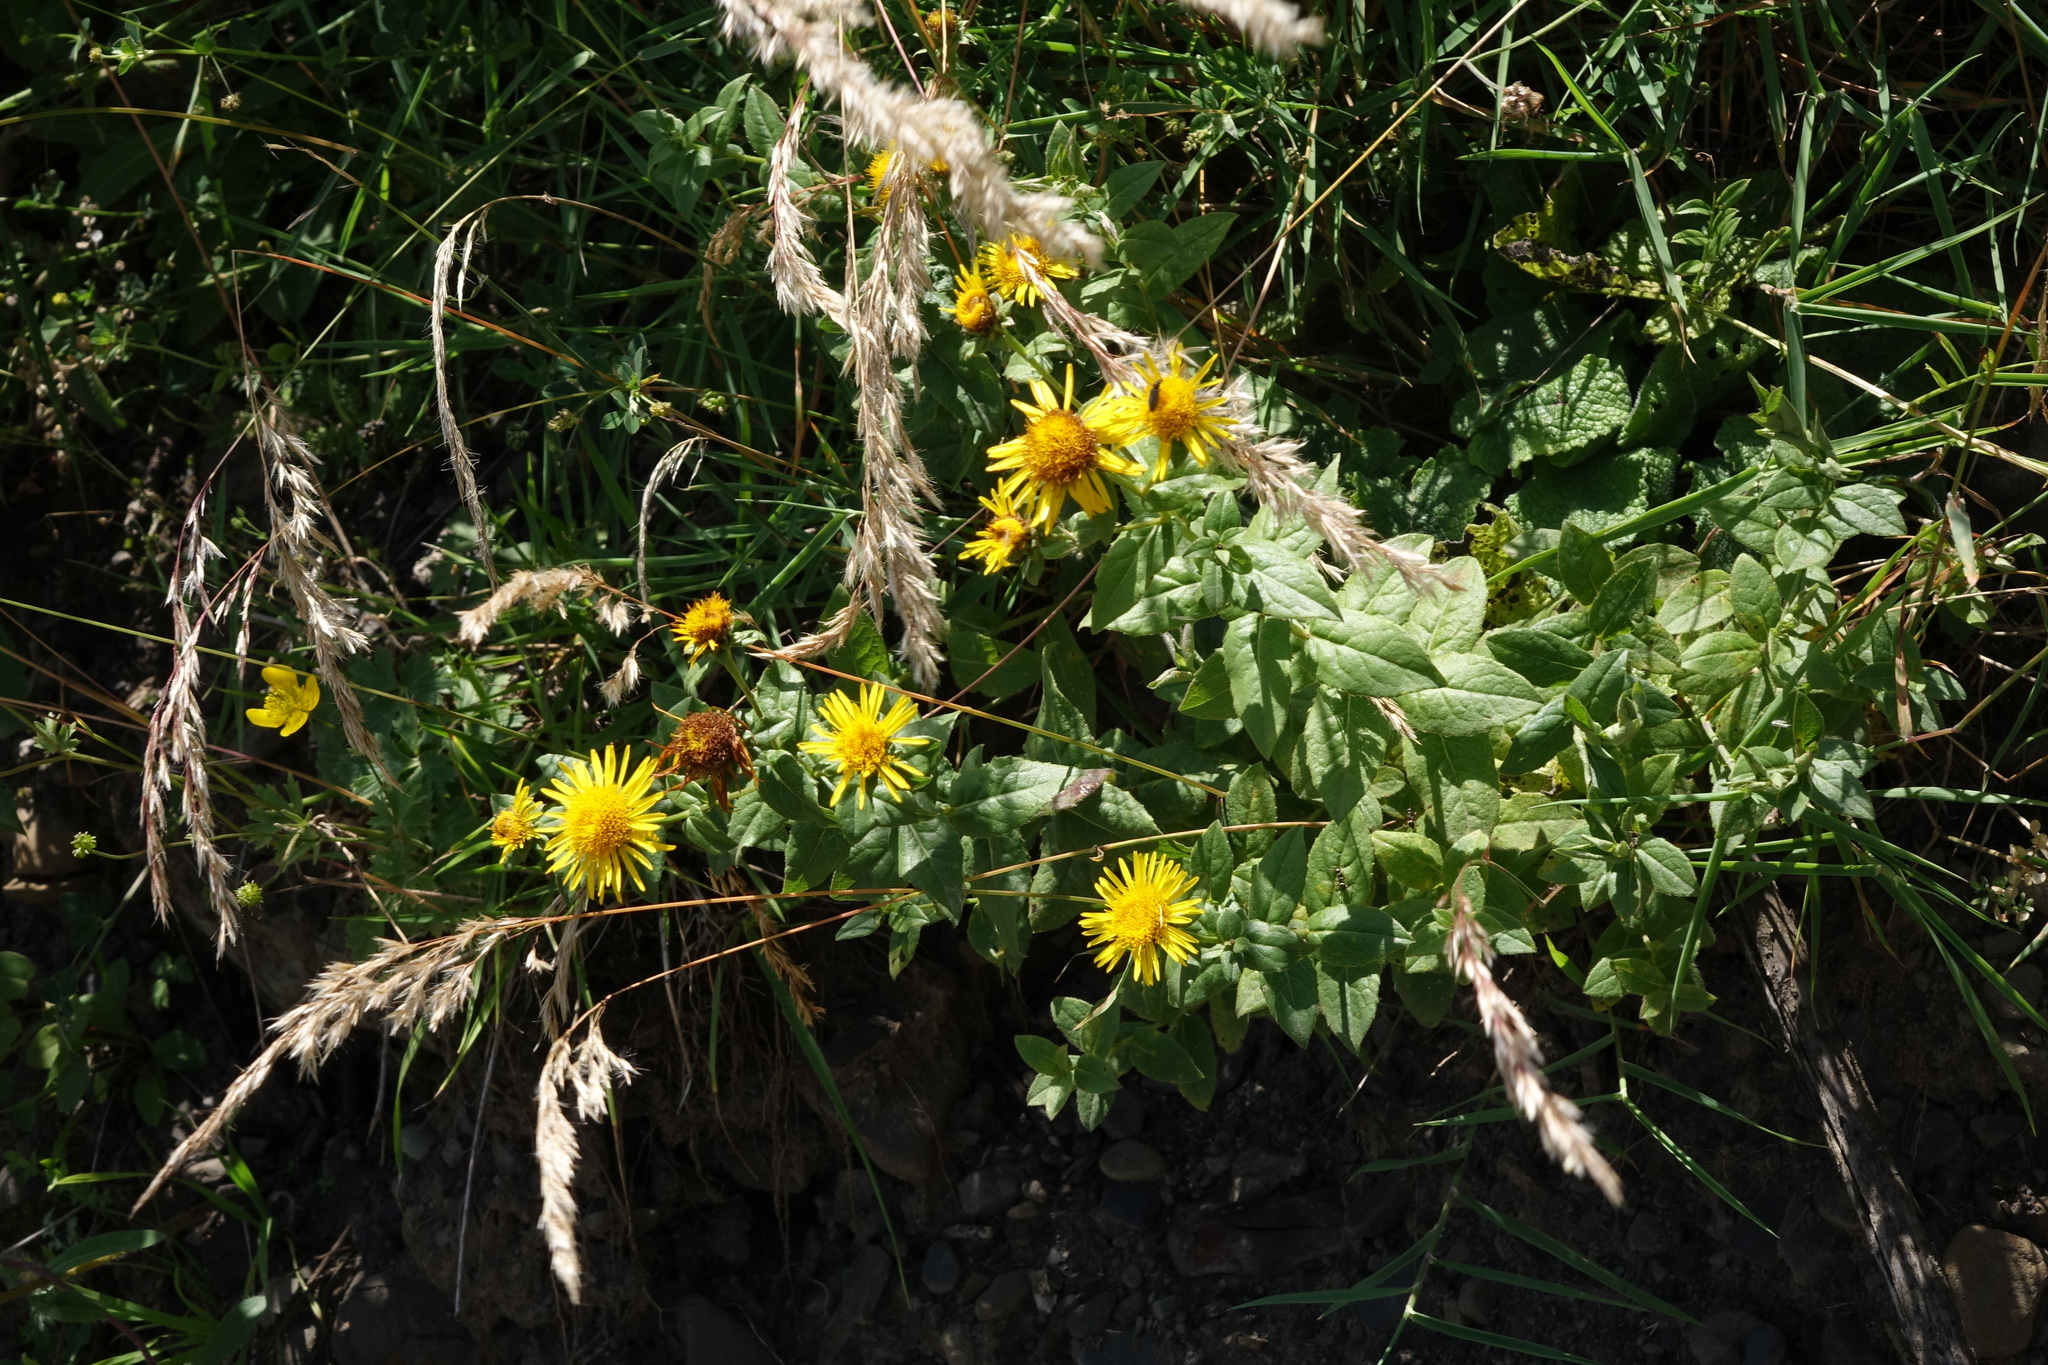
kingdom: Plantae
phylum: Tracheophyta
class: Magnoliopsida
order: Asterales
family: Asteraceae
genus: Pentanema
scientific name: Pentanema salicinum
